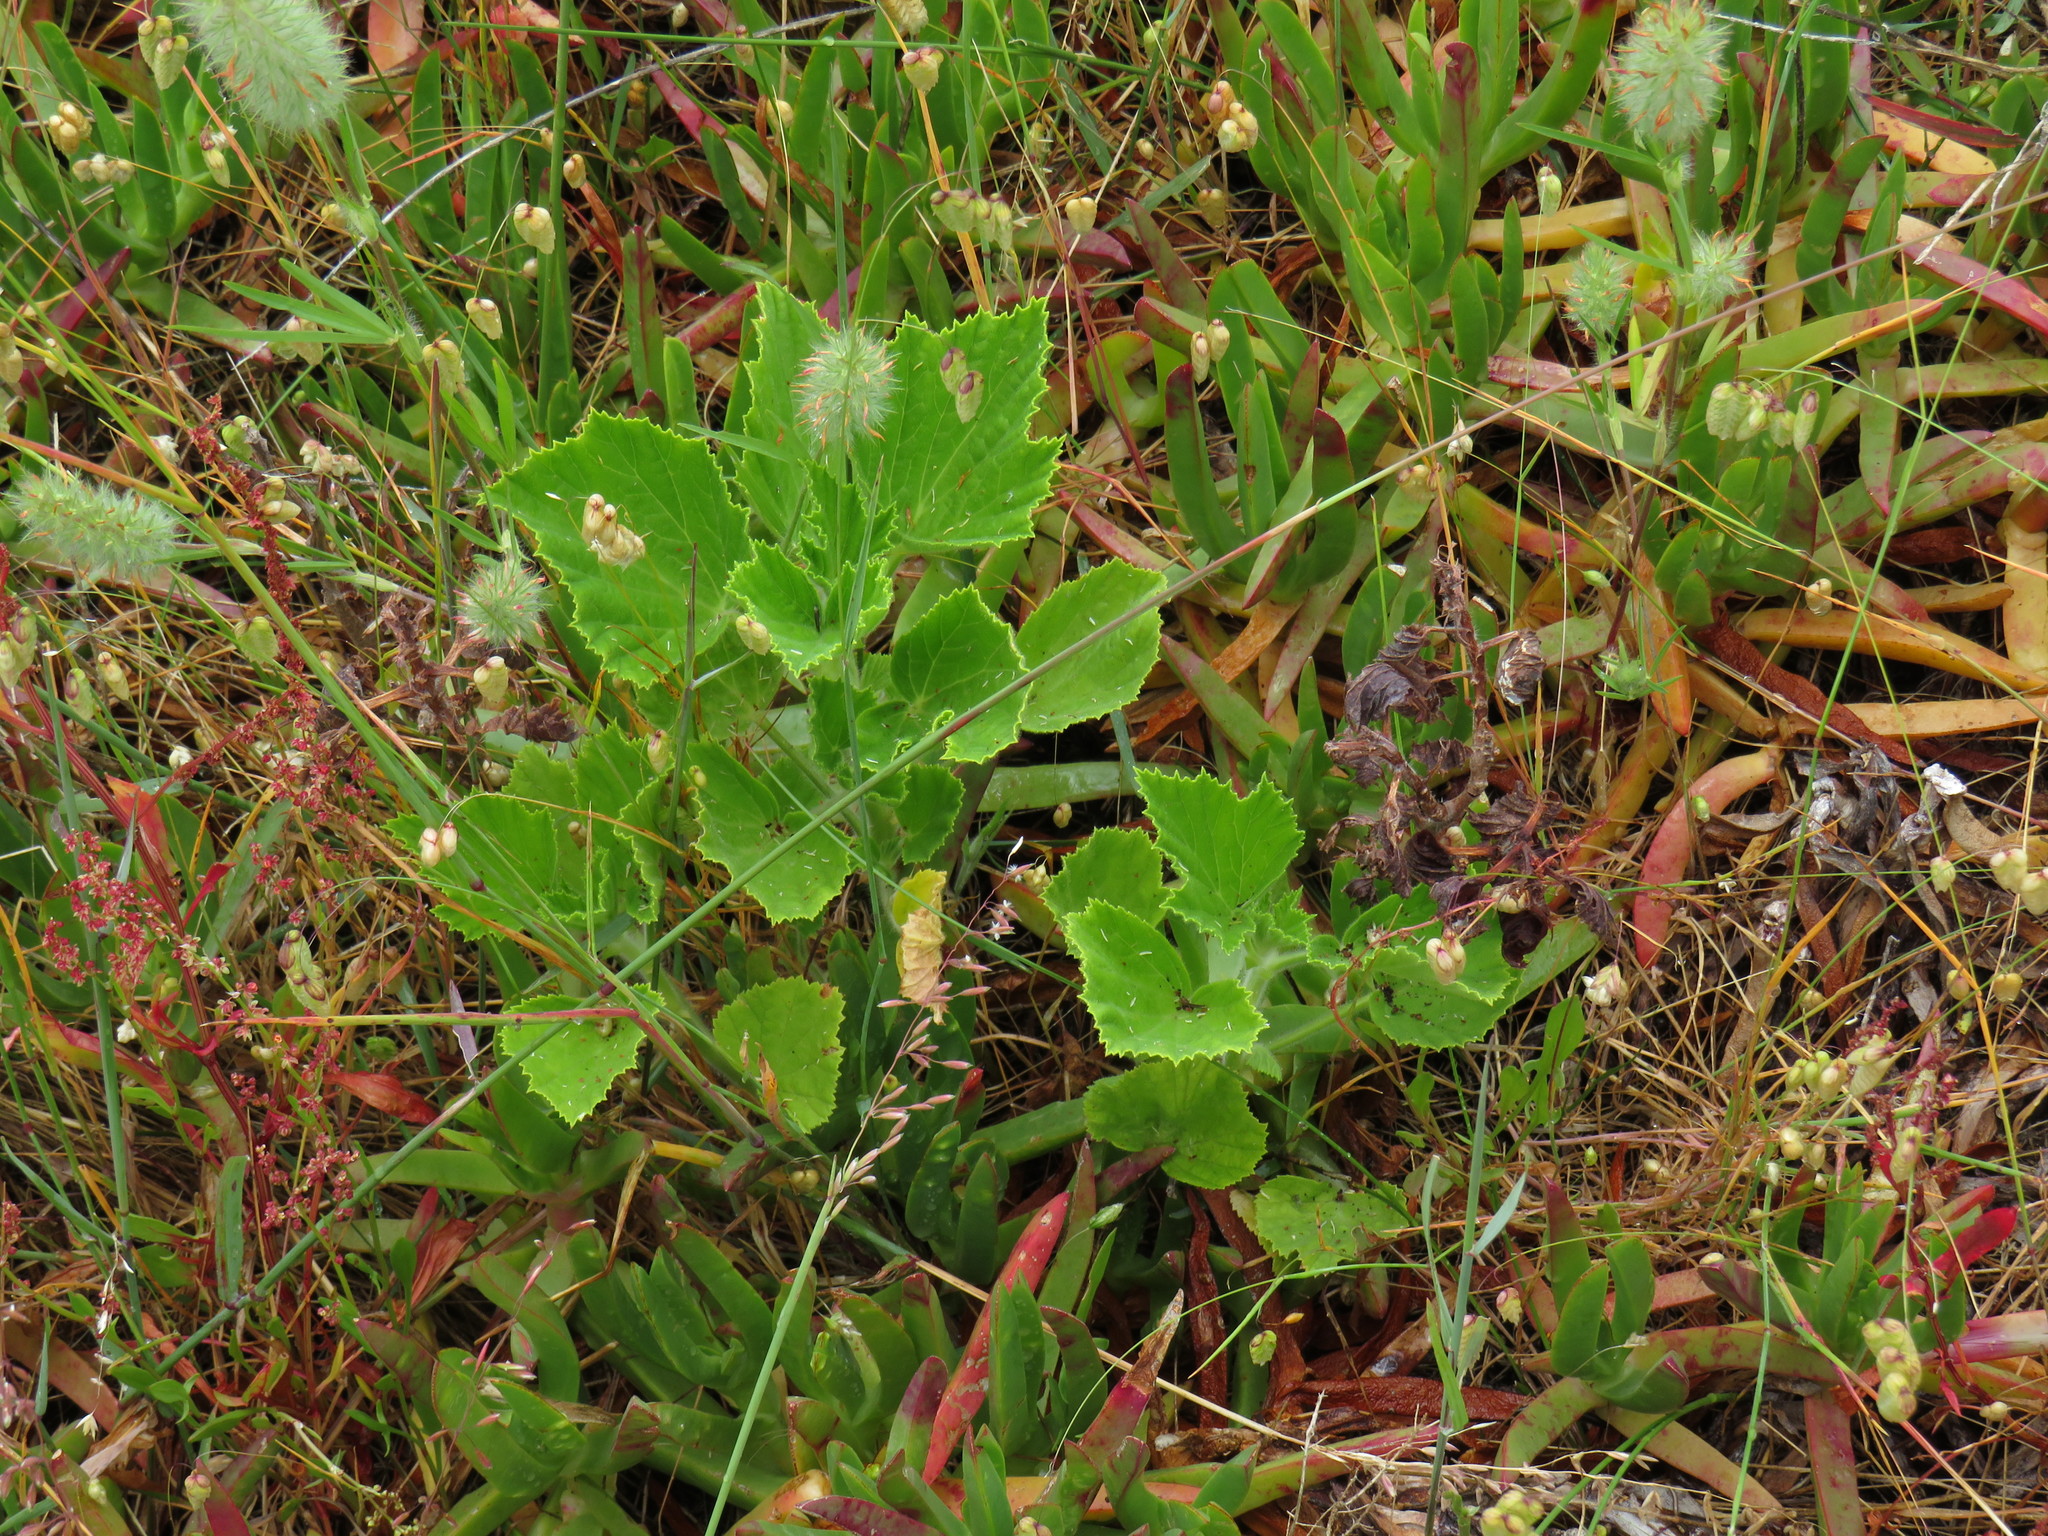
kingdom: Plantae
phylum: Tracheophyta
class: Magnoliopsida
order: Geraniales
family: Geraniaceae
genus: Pelargonium
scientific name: Pelargonium cucullatum
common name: Tree pelargonium
